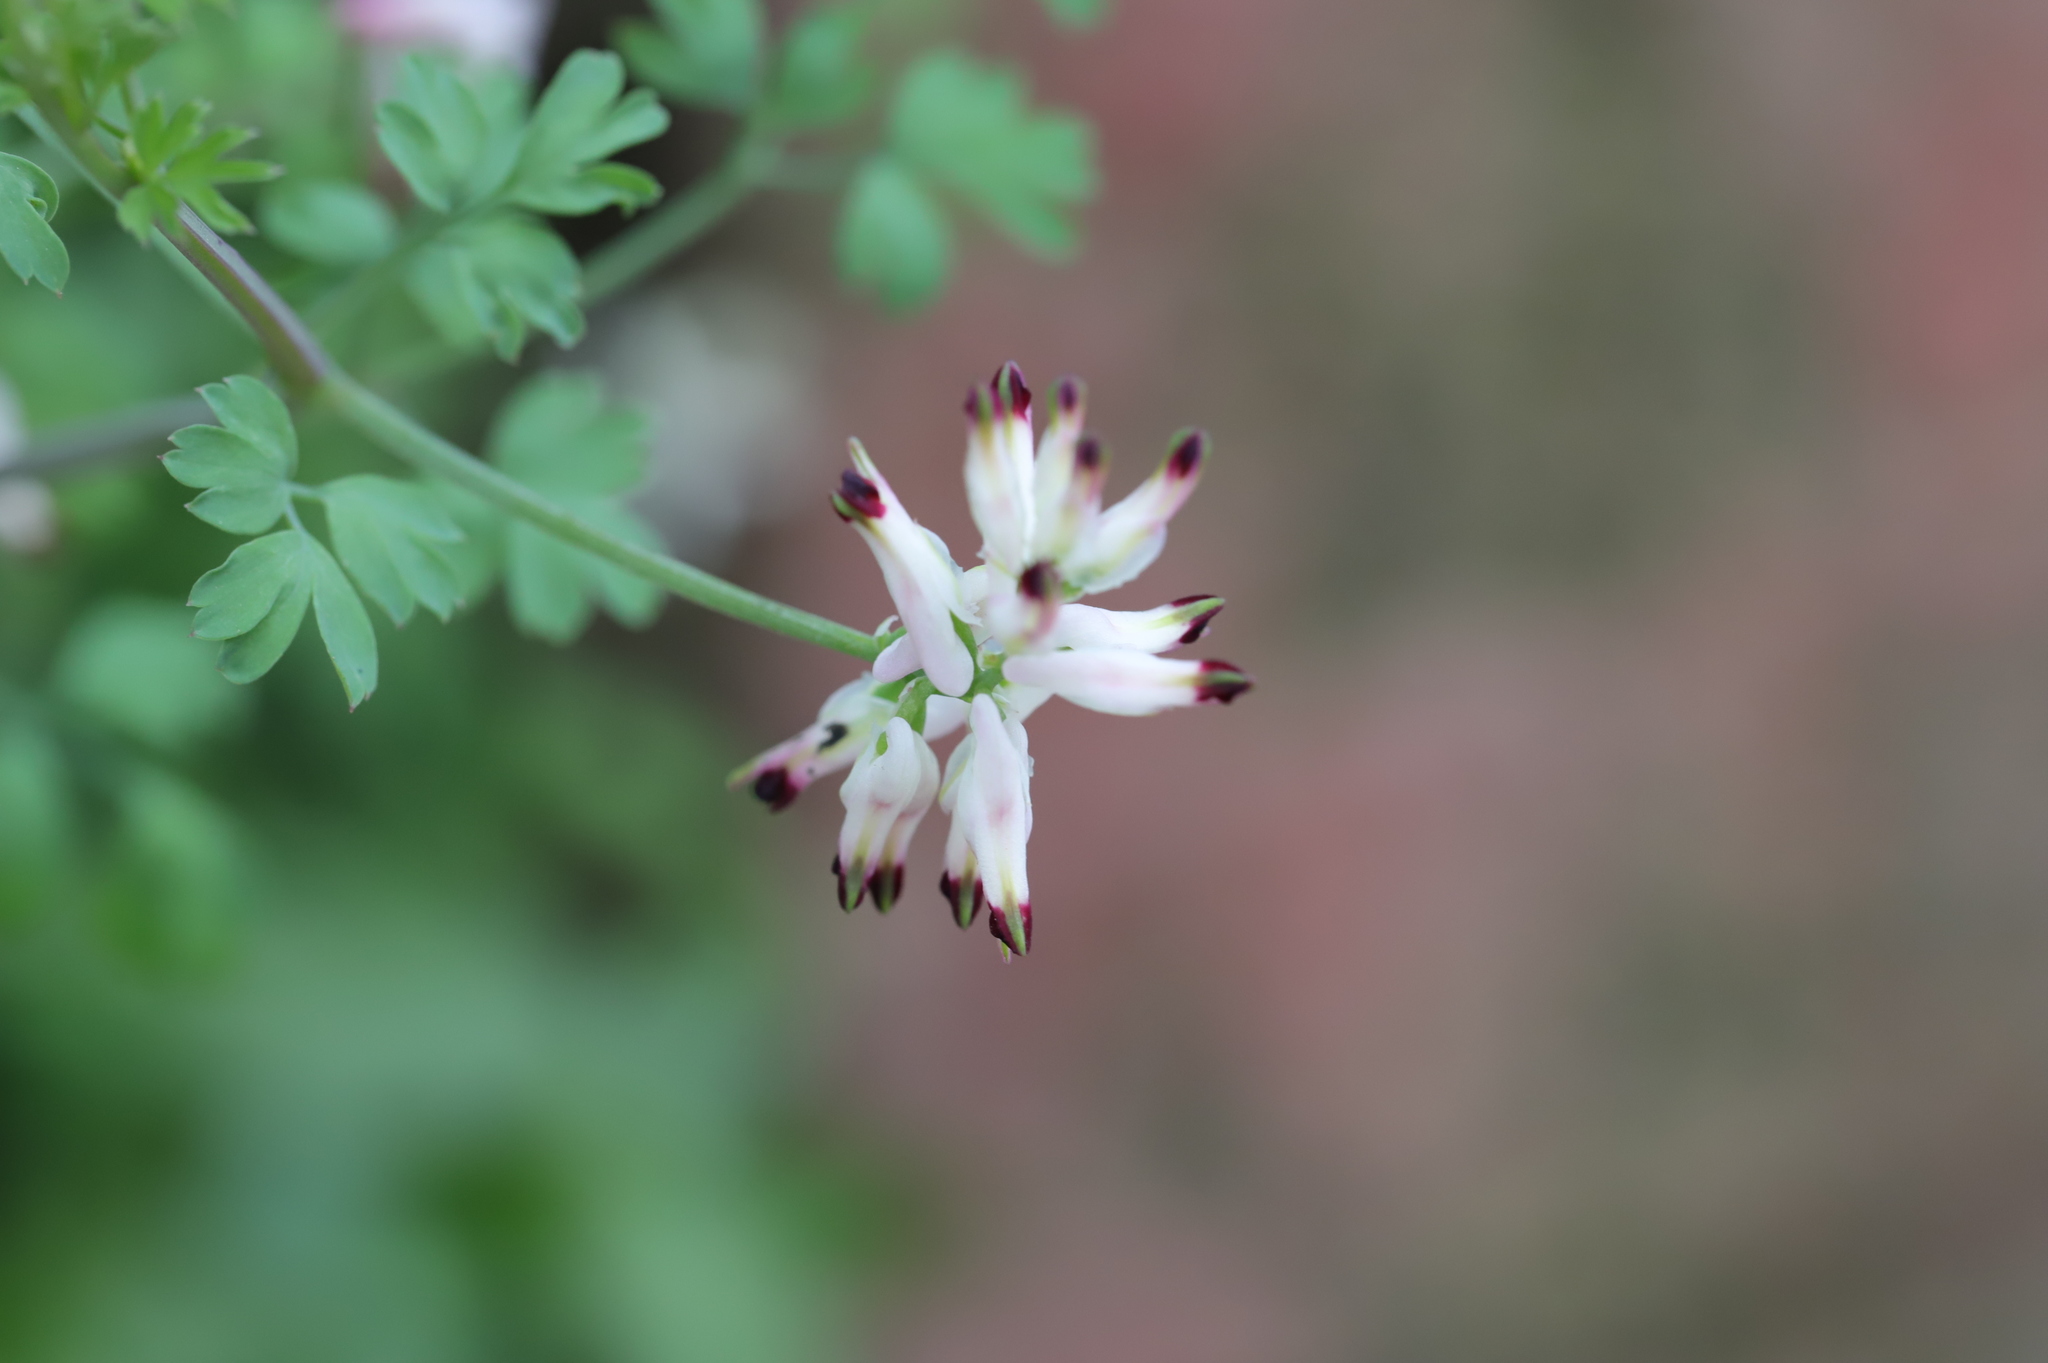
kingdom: Plantae
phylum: Tracheophyta
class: Magnoliopsida
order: Ranunculales
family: Papaveraceae
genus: Fumaria
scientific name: Fumaria capreolata
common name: White ramping-fumitory
